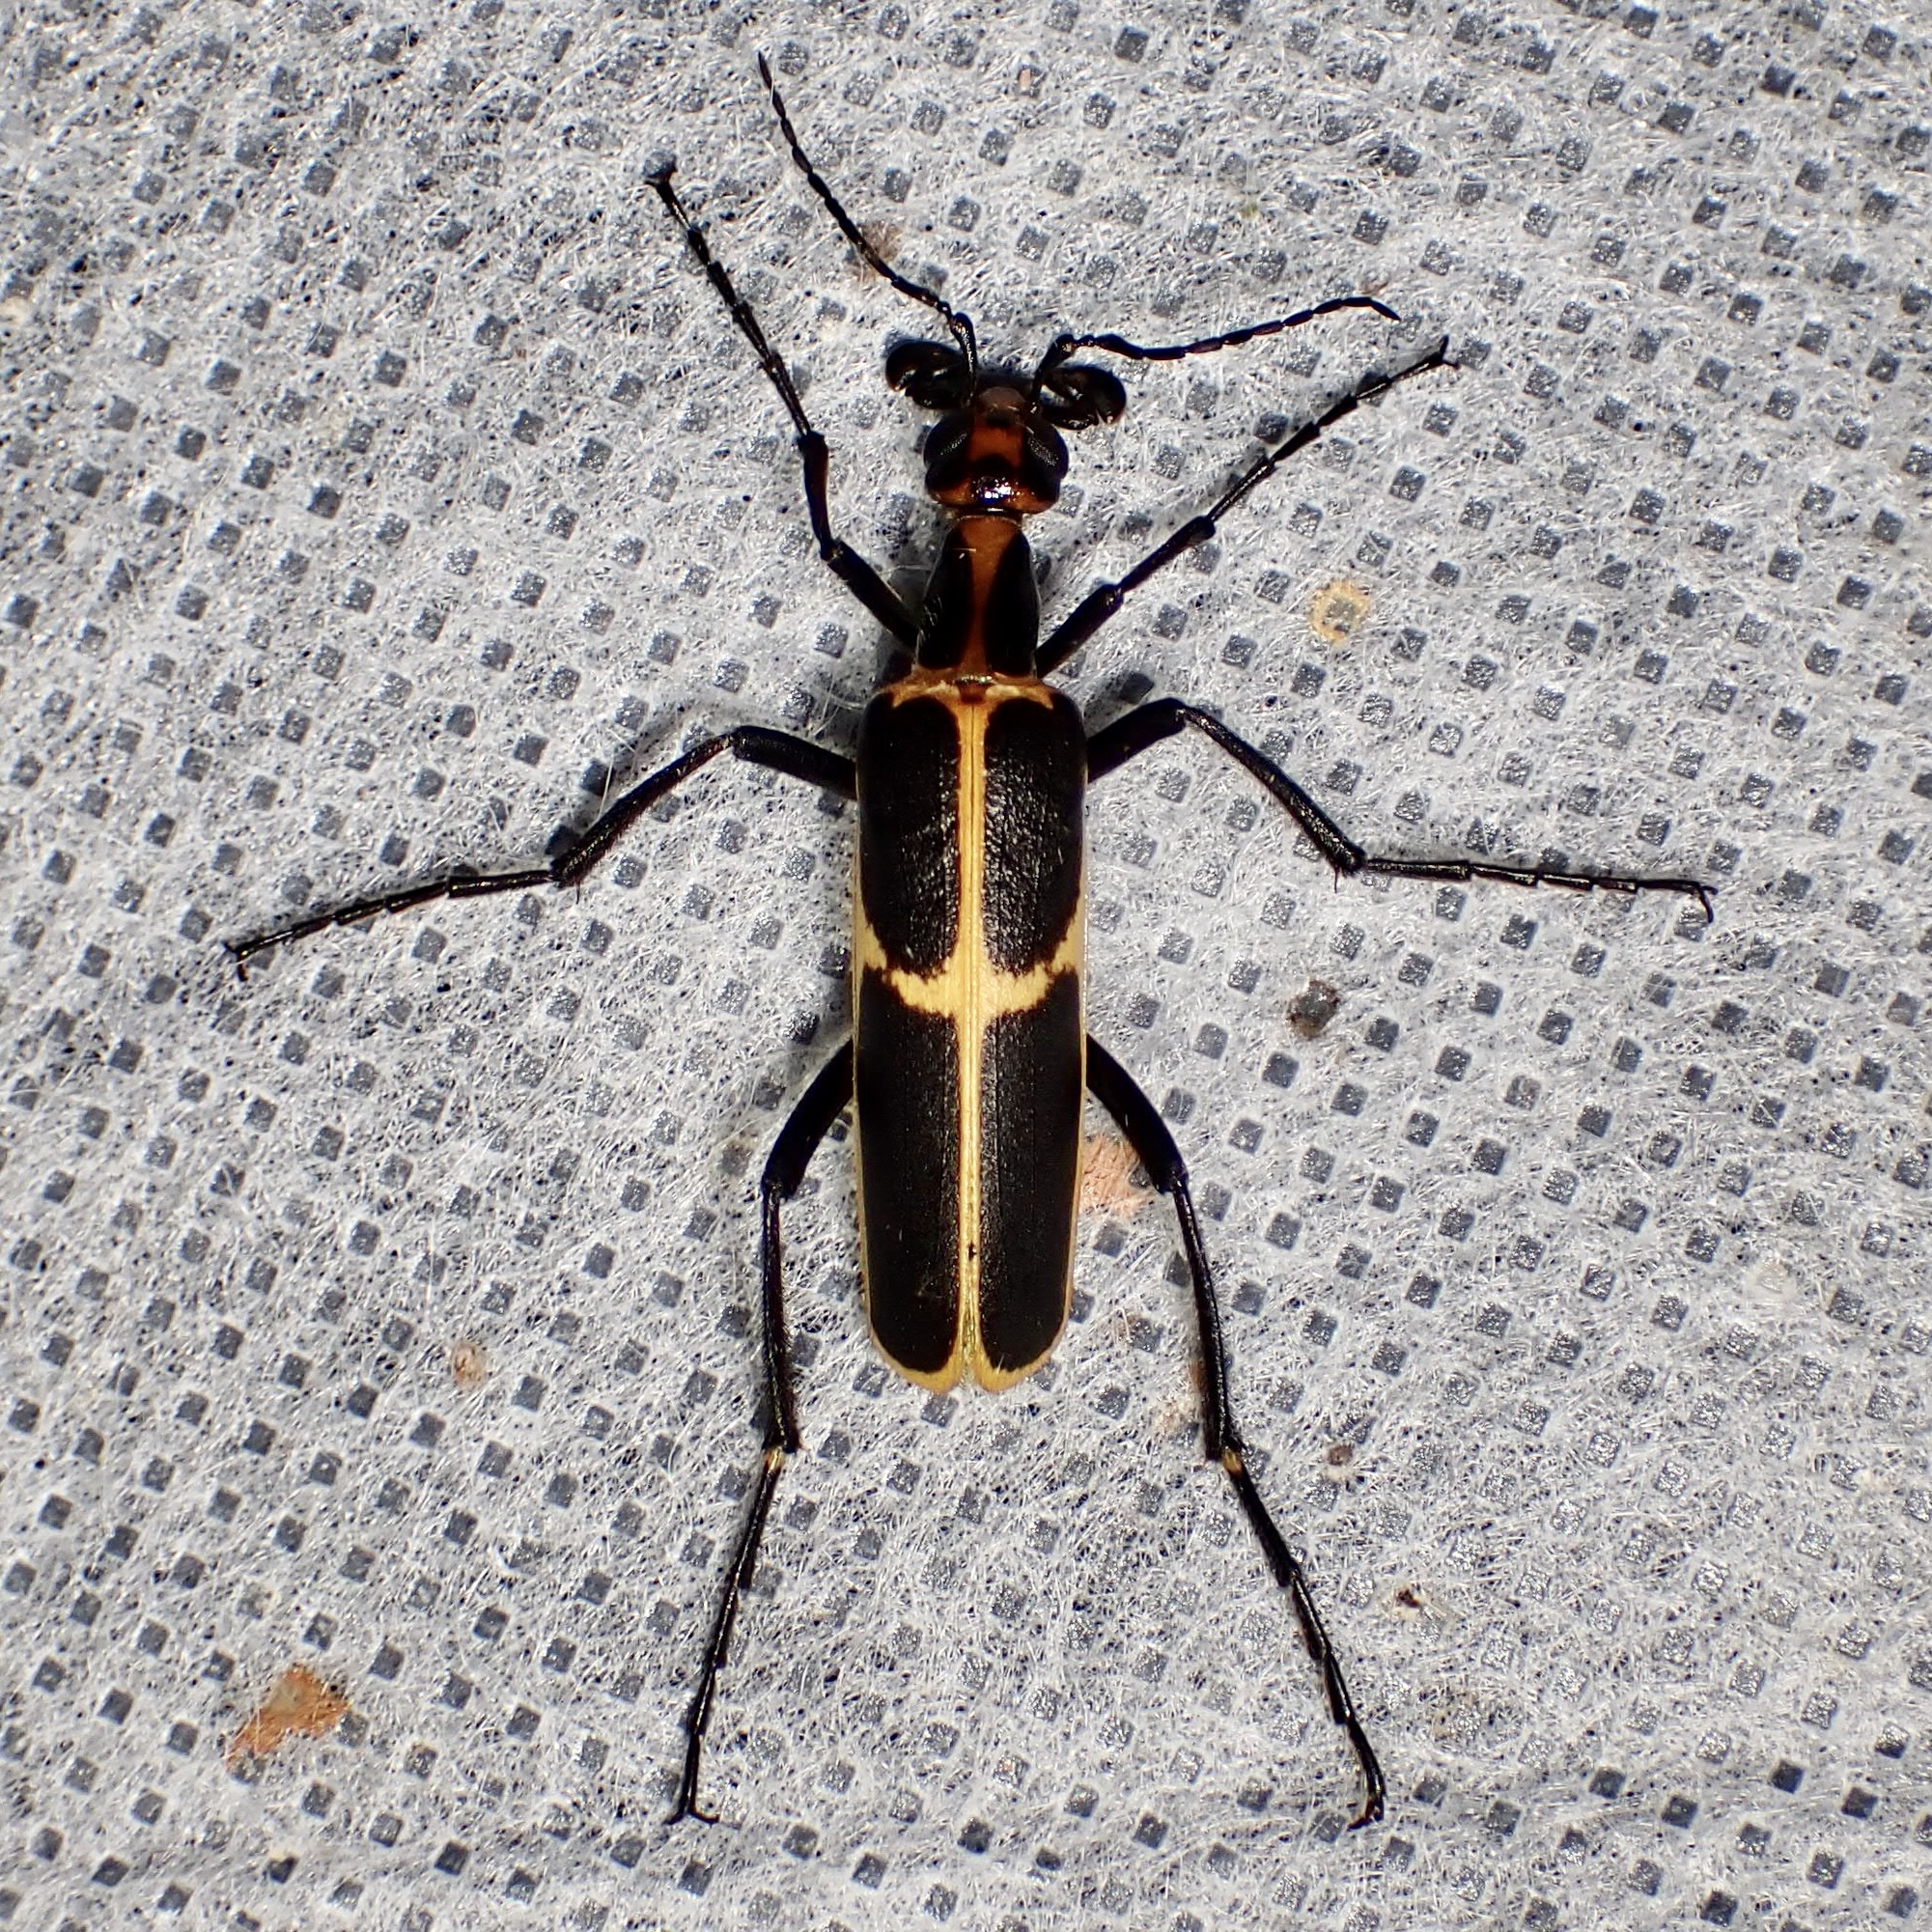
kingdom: Animalia
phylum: Arthropoda
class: Insecta
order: Coleoptera
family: Meloidae
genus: Pyrota
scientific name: Pyrota
